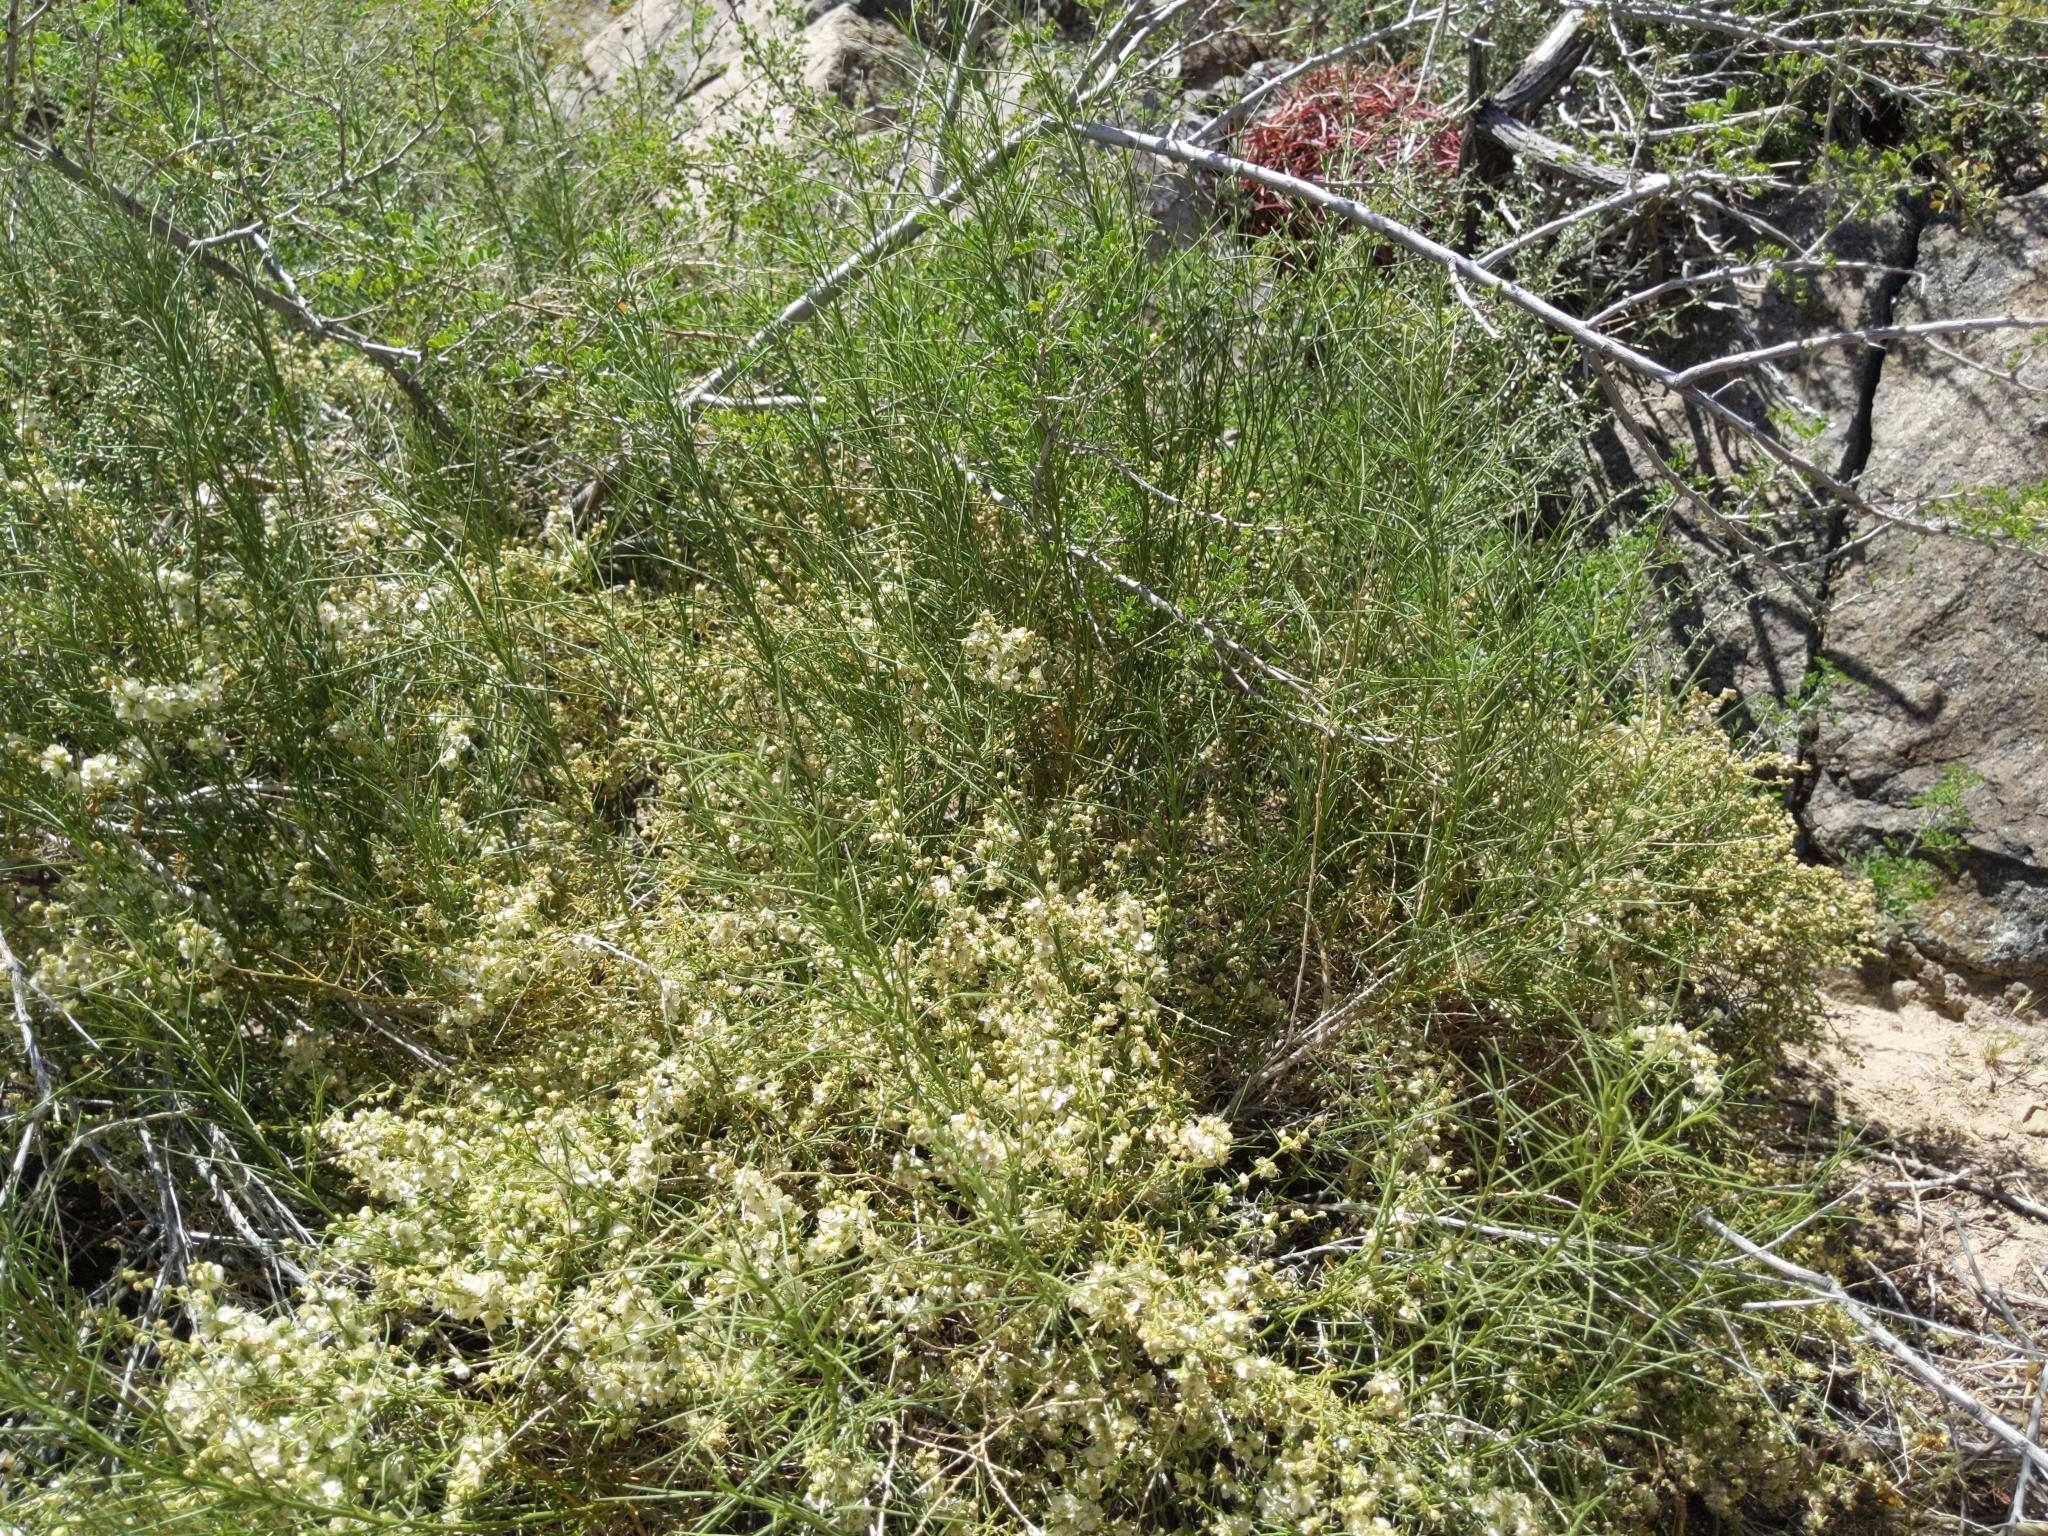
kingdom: Plantae
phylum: Tracheophyta
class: Magnoliopsida
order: Asterales
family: Asteraceae
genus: Ambrosia
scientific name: Ambrosia salsola
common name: Burrobrush
